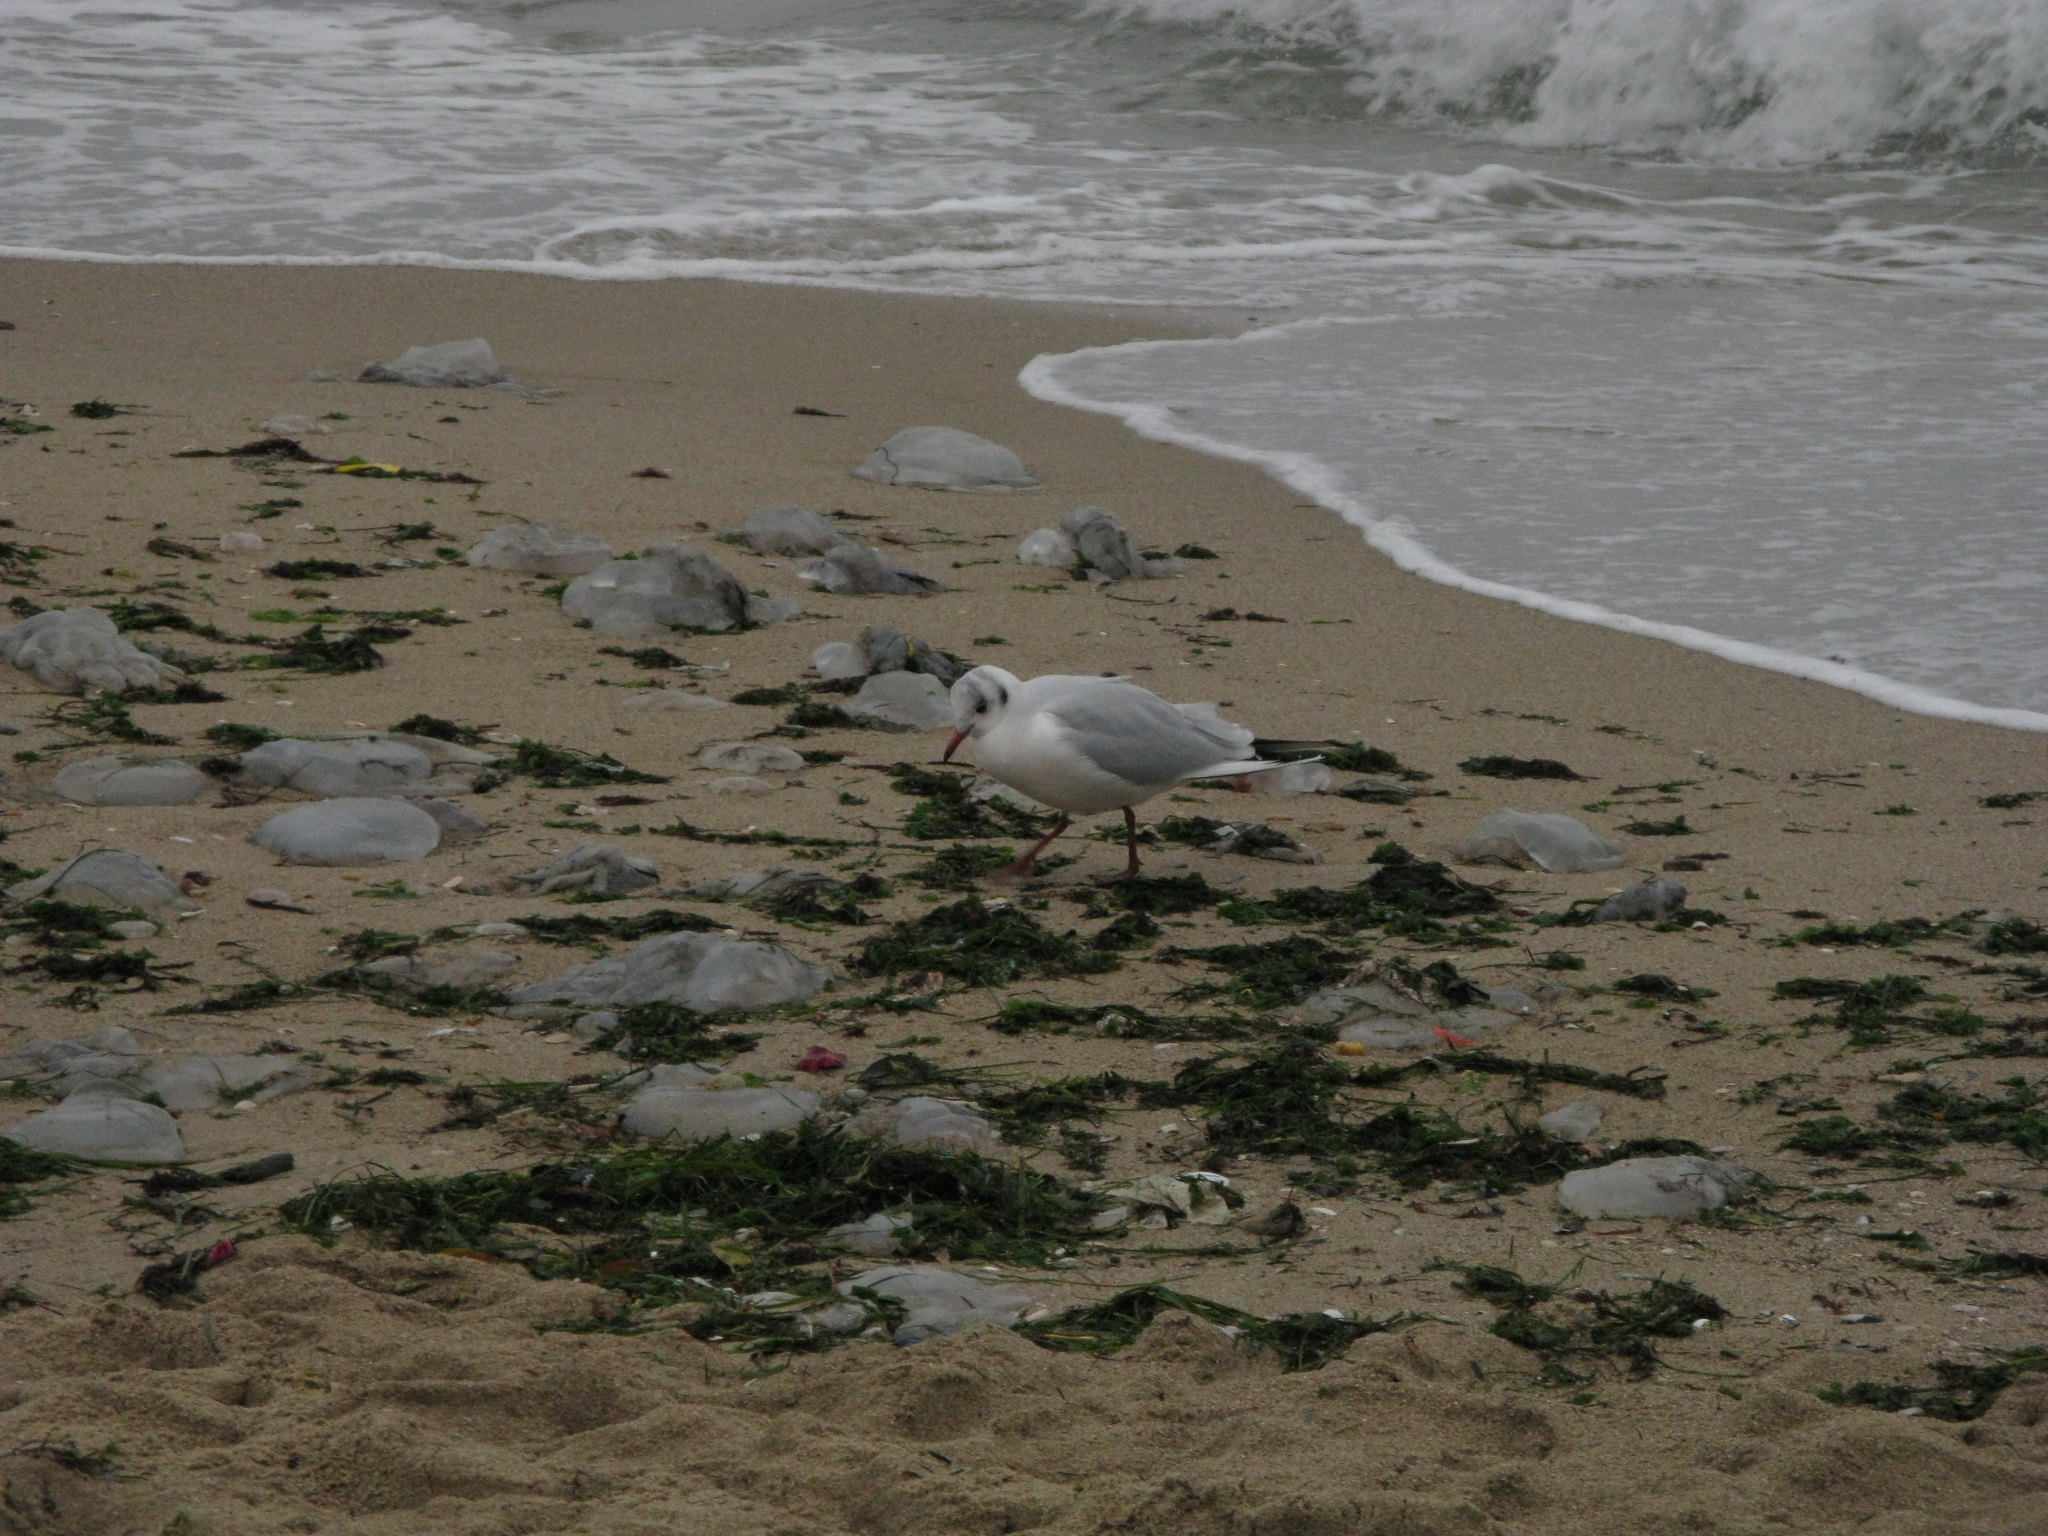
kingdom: Animalia
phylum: Chordata
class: Aves
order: Charadriiformes
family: Laridae
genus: Chroicocephalus
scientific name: Chroicocephalus ridibundus
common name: Black-headed gull
